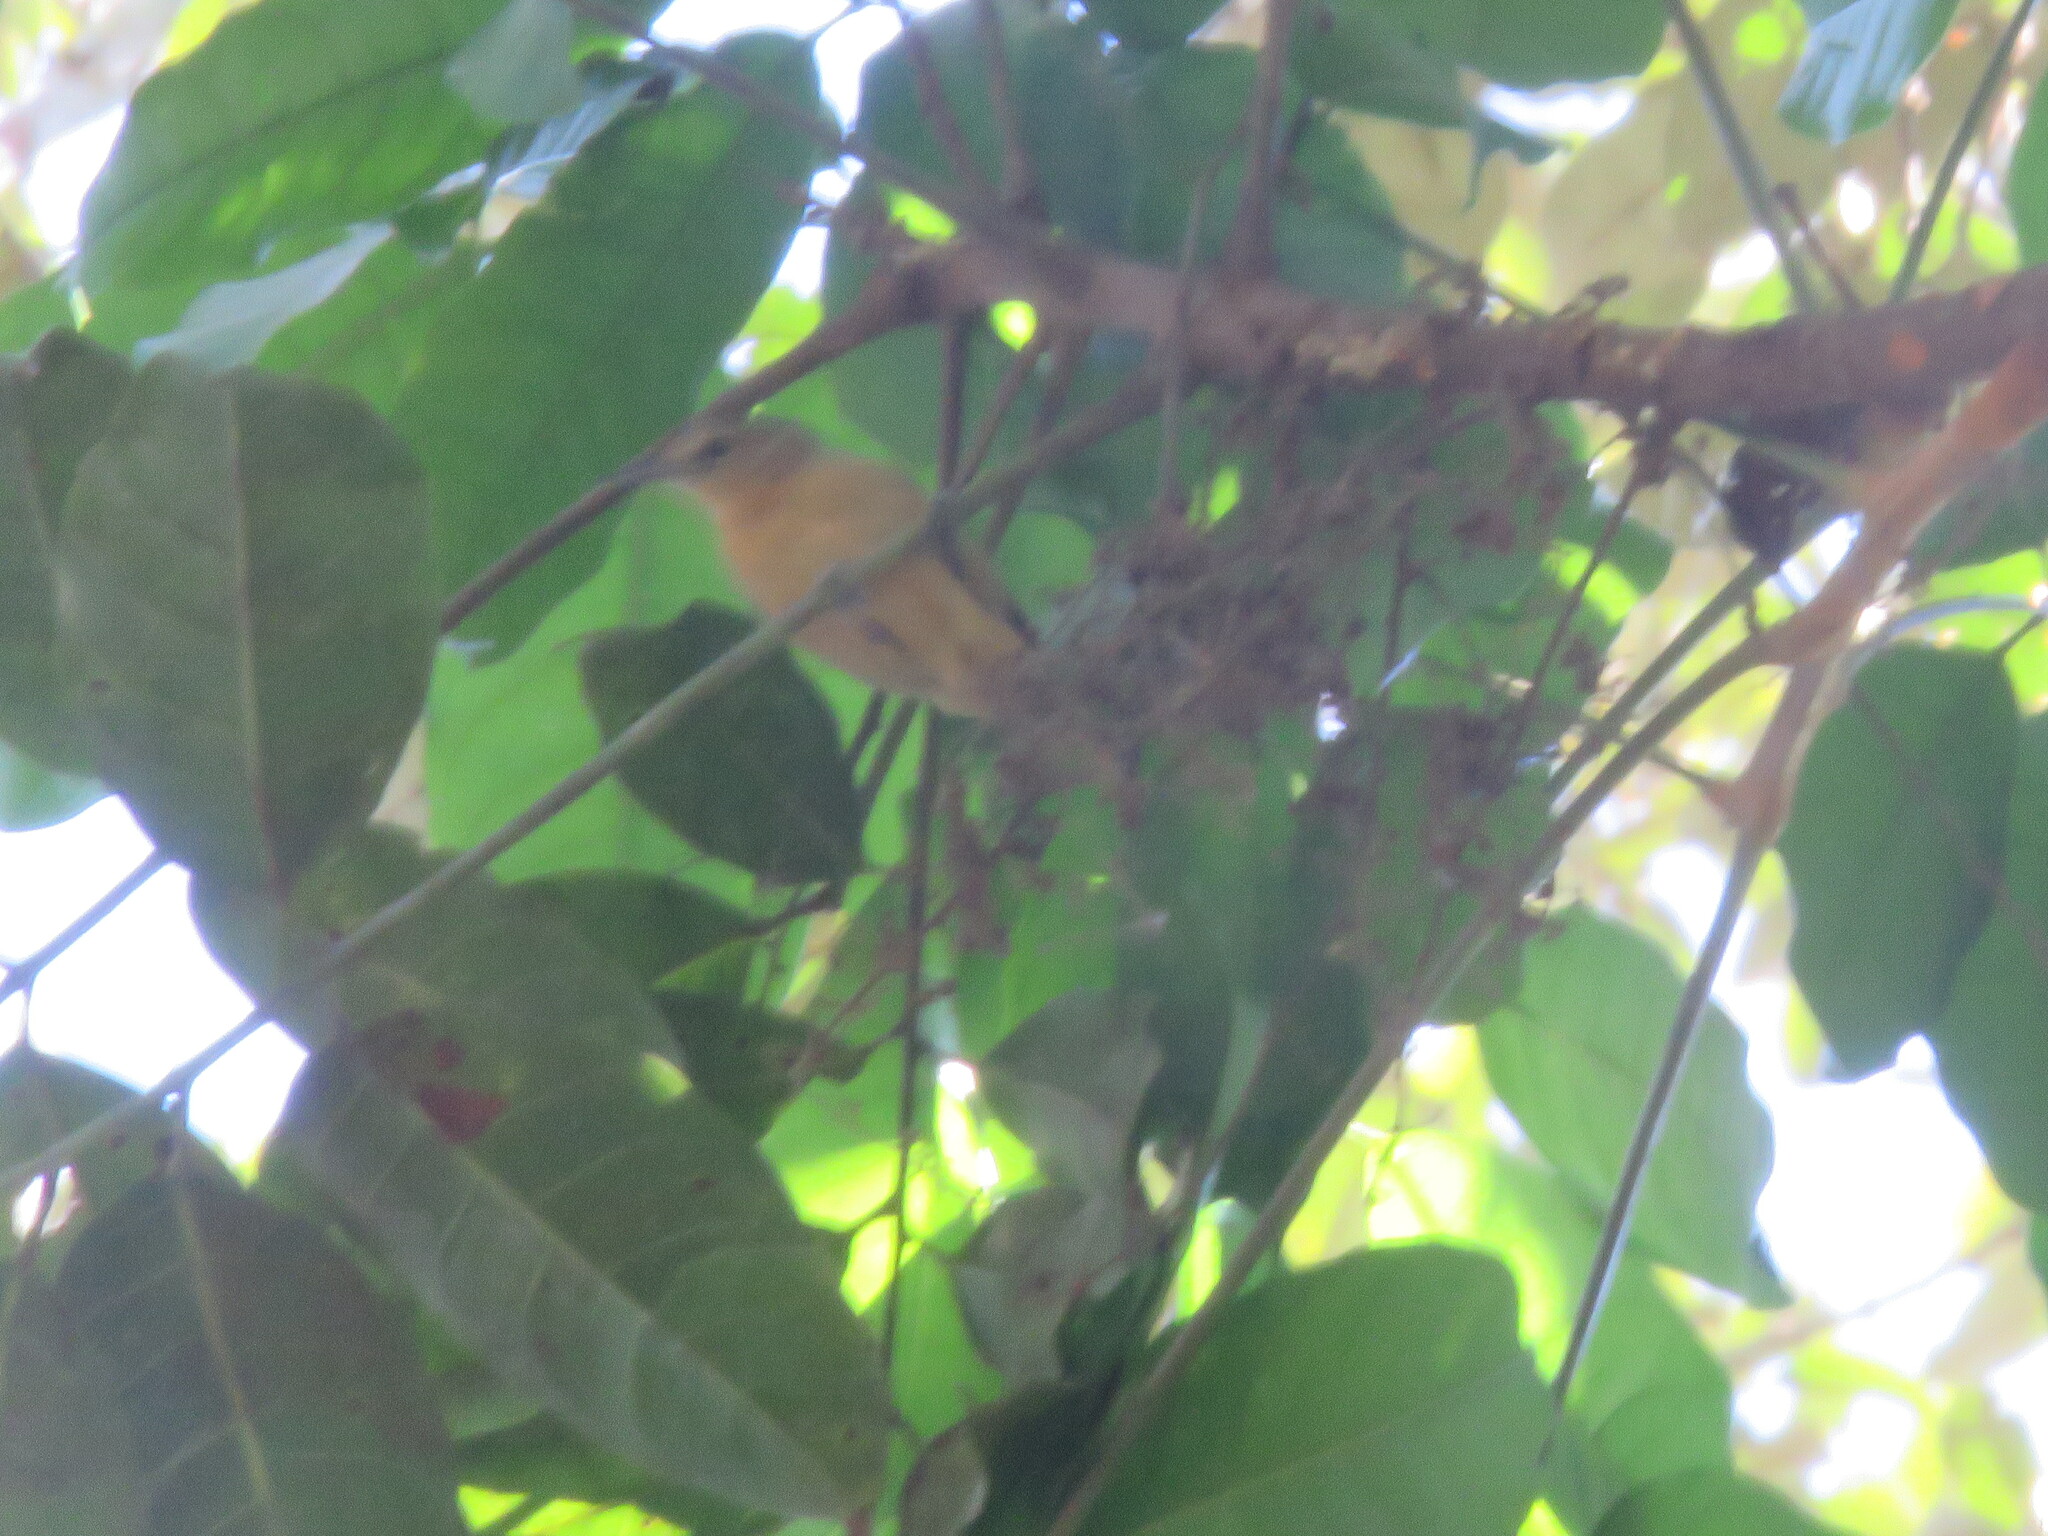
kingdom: Animalia
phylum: Chordata
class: Aves
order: Passeriformes
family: Thamnophilidae
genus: Myrmotherula
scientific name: Myrmotherula menetriesii
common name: Grey antwren
